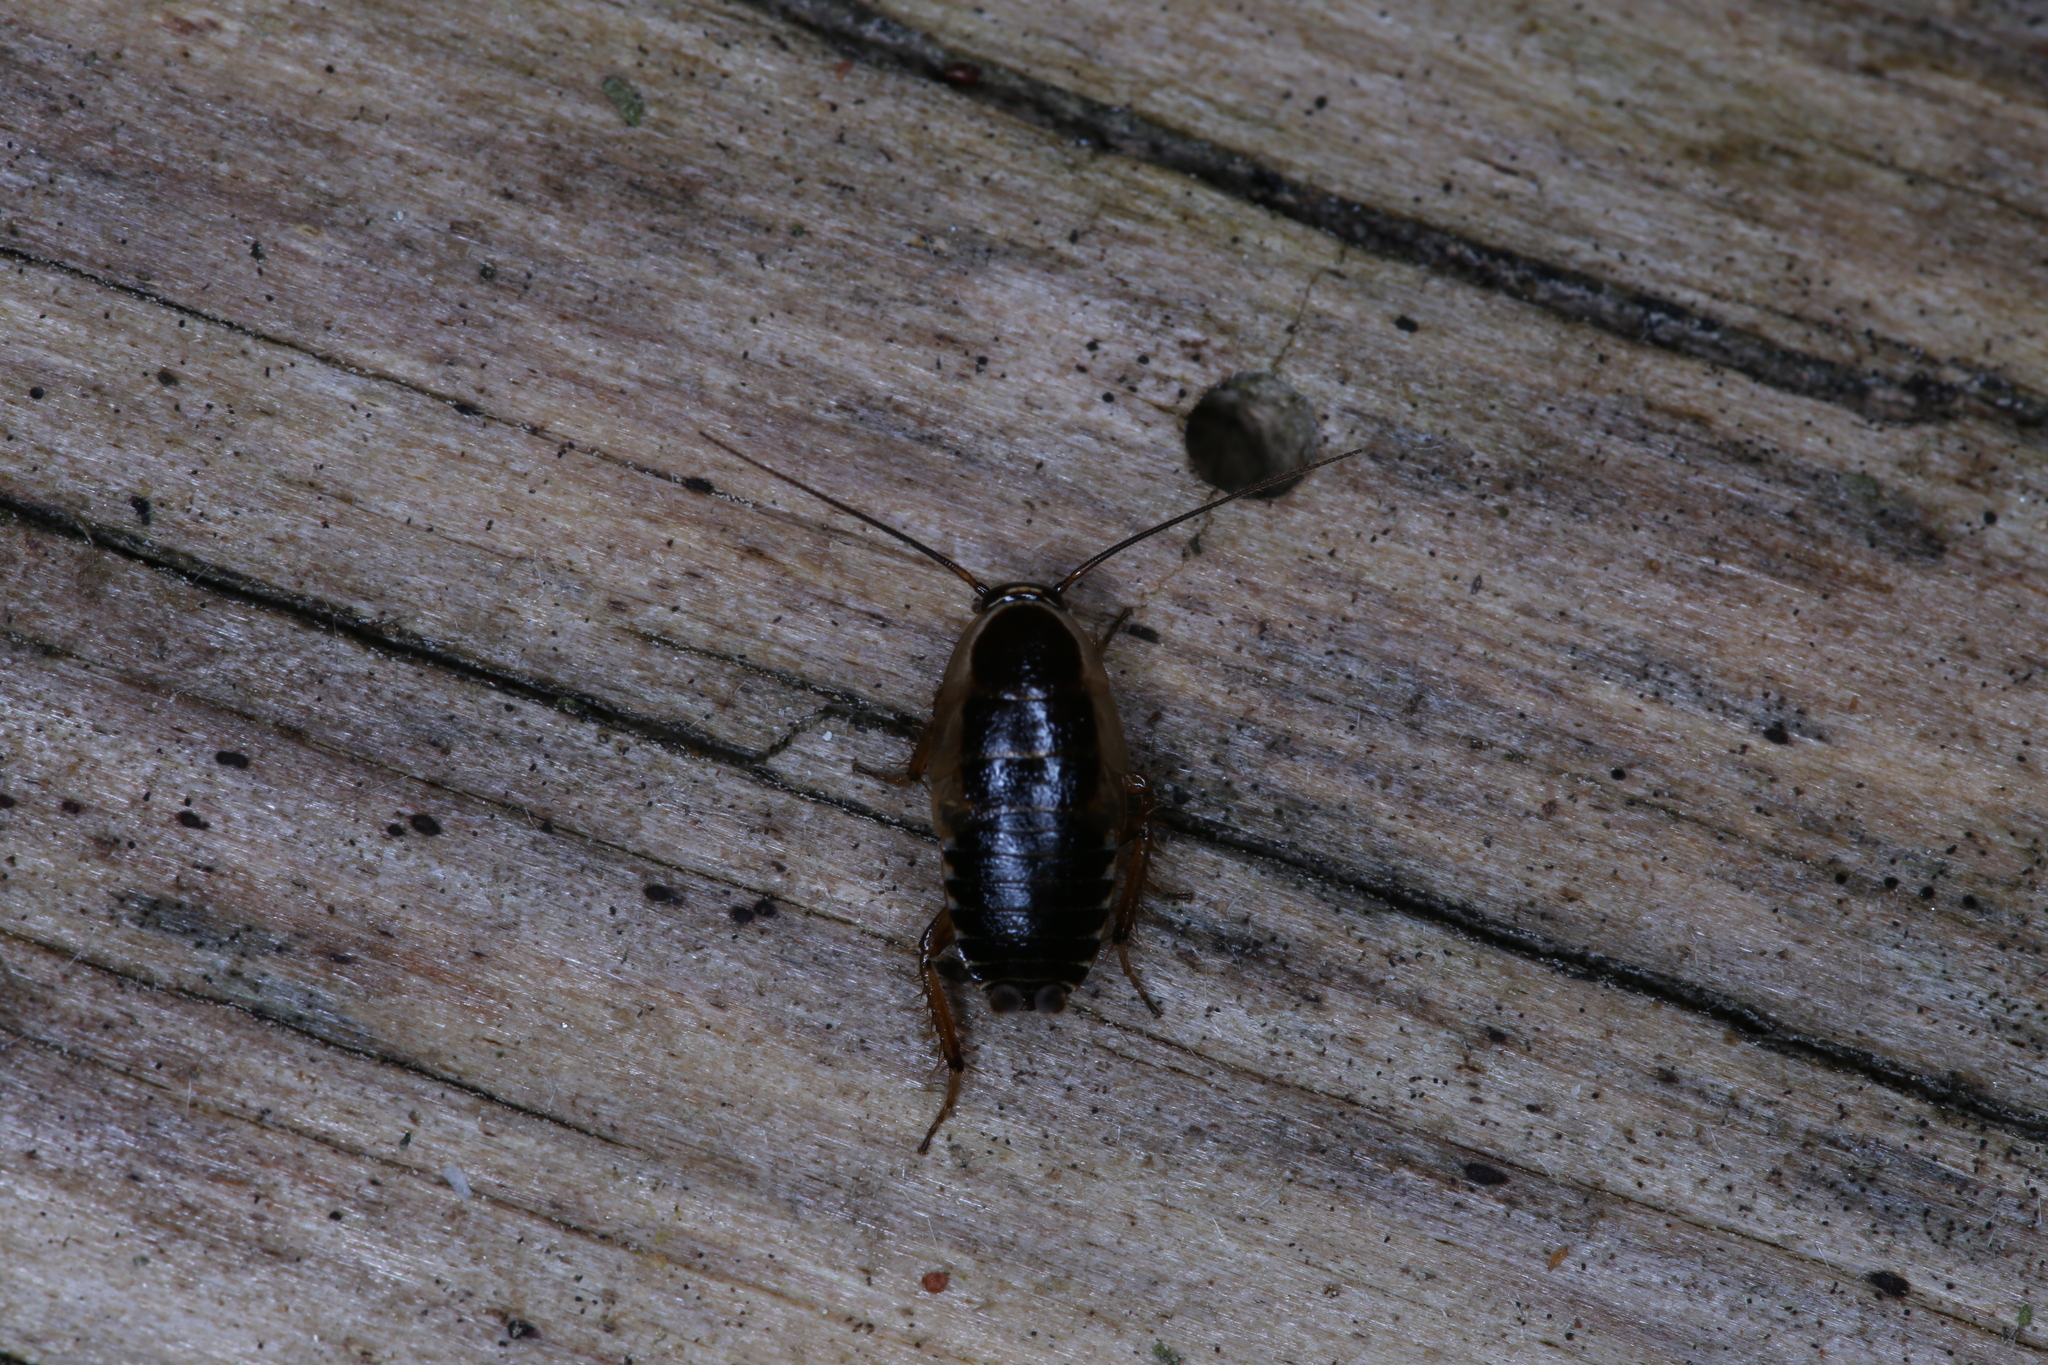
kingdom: Animalia
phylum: Arthropoda
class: Insecta
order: Blattodea
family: Ectobiidae
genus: Ectobius
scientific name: Ectobius sylvestris
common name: Forest cockroach
